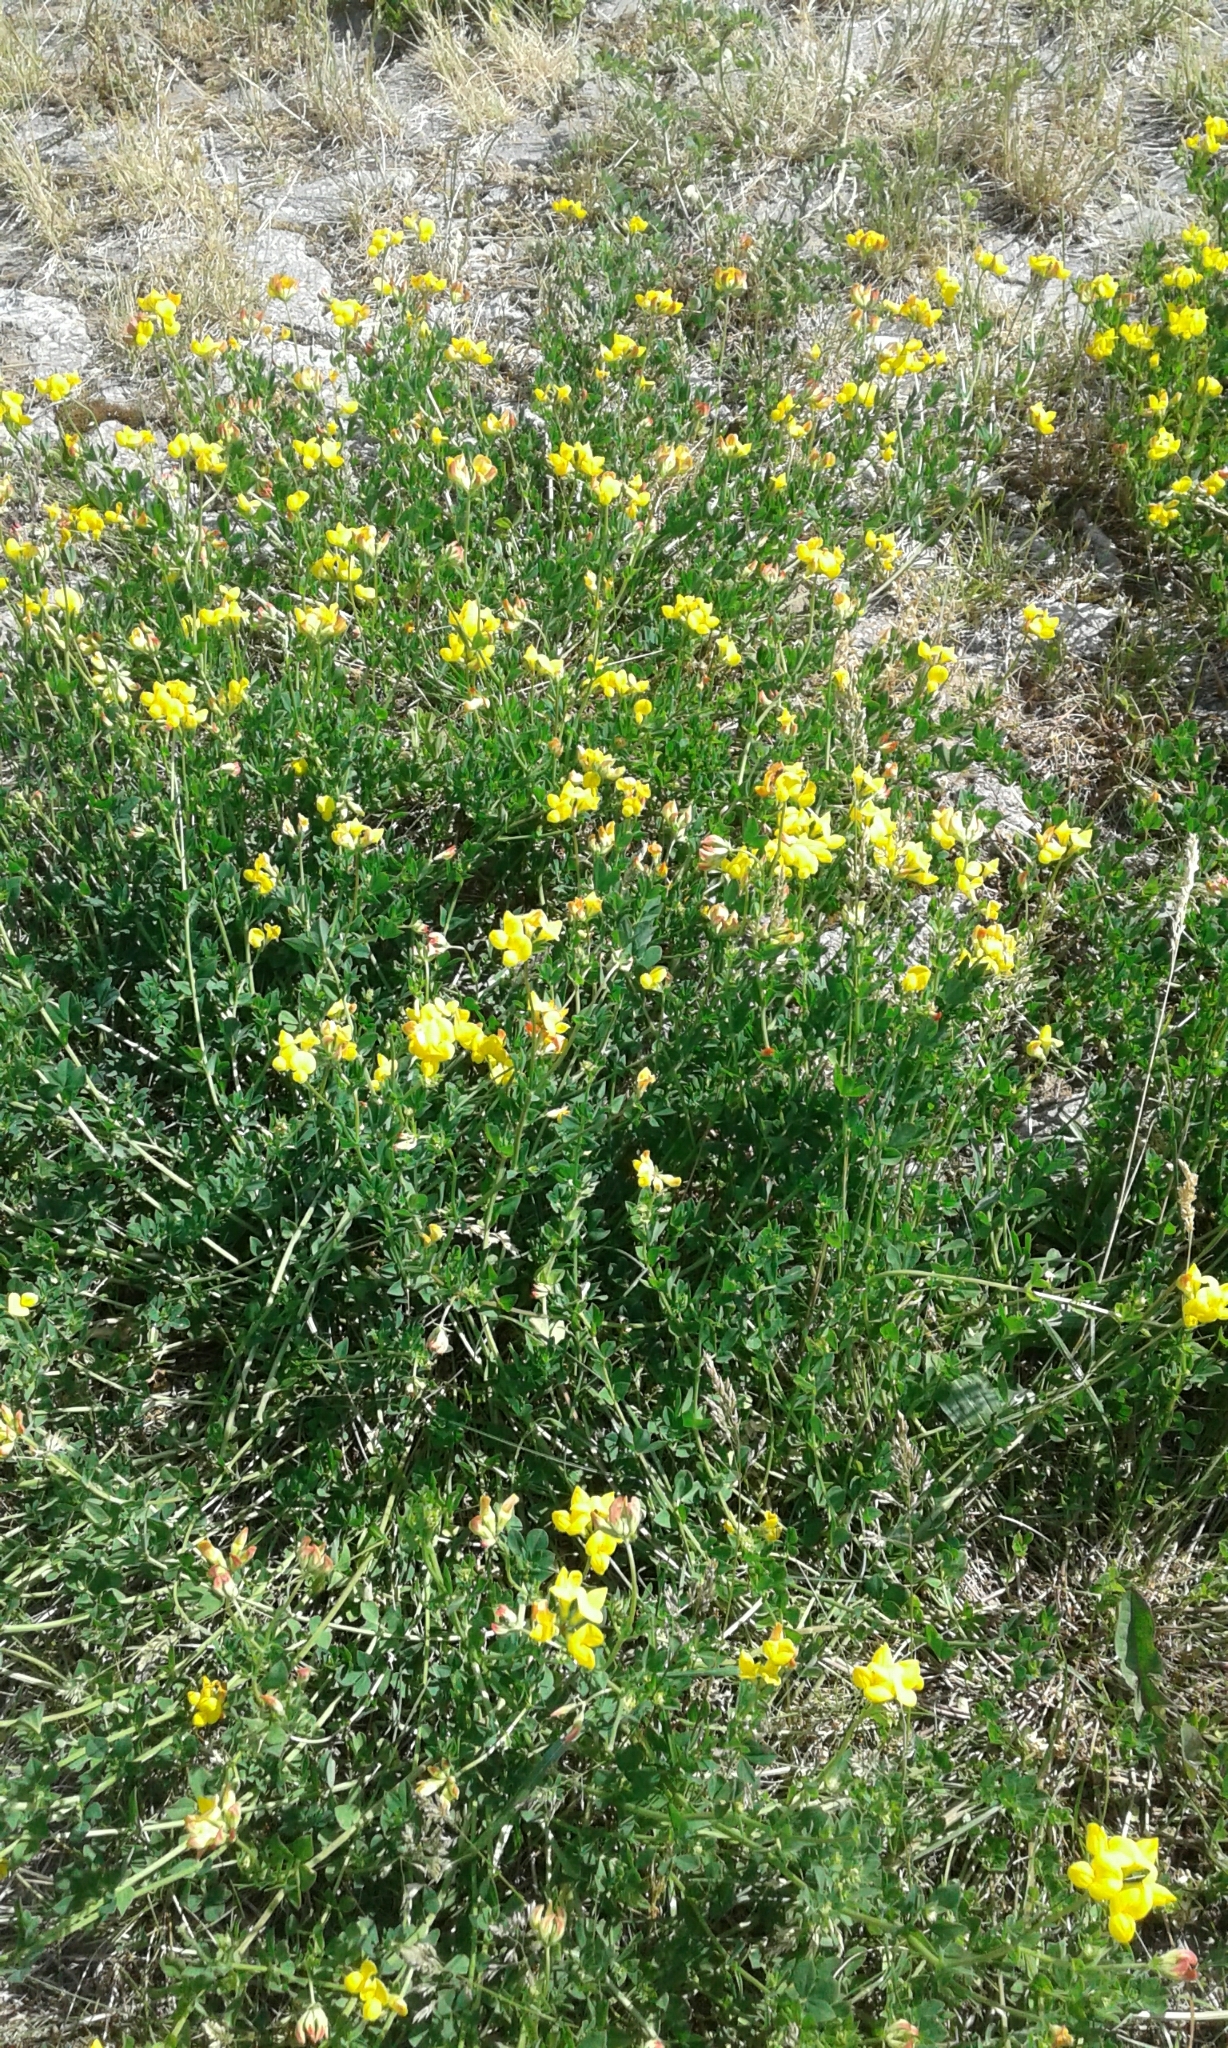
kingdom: Plantae
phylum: Tracheophyta
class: Magnoliopsida
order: Fabales
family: Fabaceae
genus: Lotus
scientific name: Lotus corniculatus
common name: Common bird's-foot-trefoil
